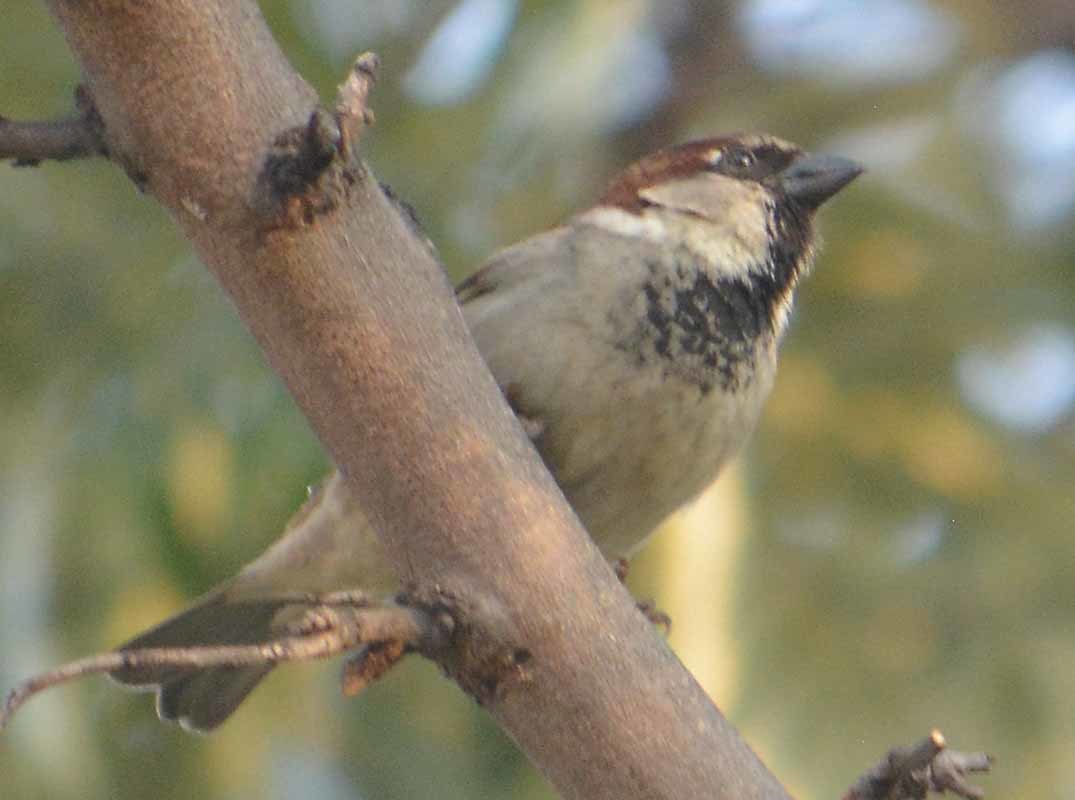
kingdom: Animalia
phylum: Chordata
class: Aves
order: Passeriformes
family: Passeridae
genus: Passer
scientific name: Passer domesticus
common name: House sparrow
